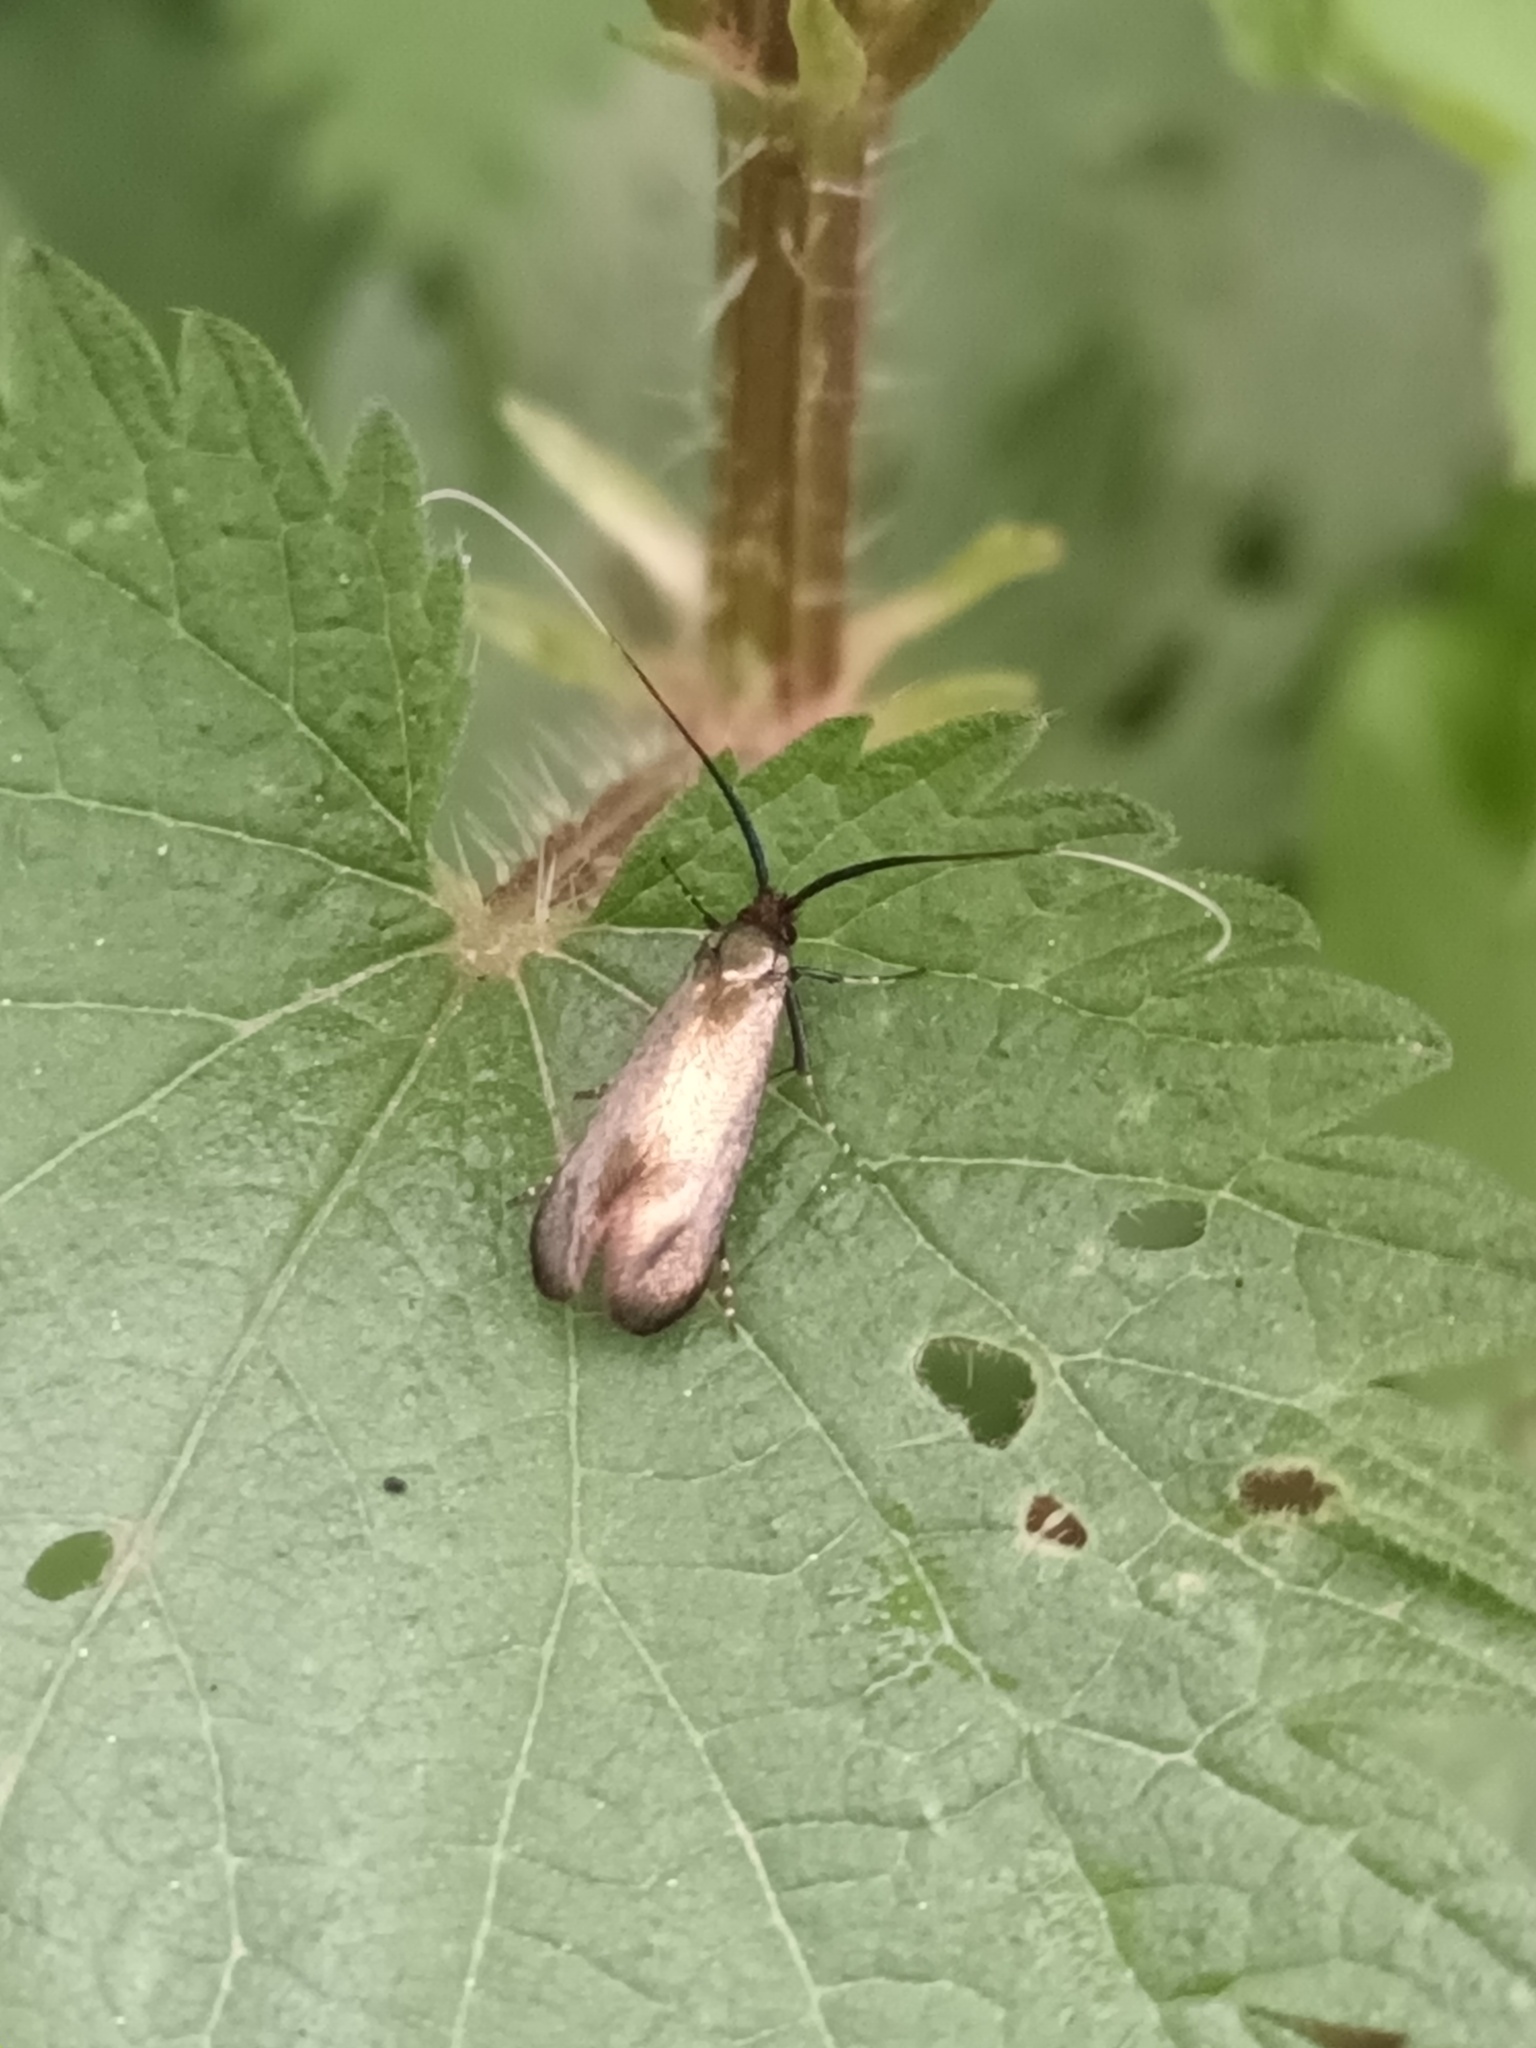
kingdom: Animalia
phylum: Arthropoda
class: Insecta
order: Lepidoptera
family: Adelidae
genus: Adela
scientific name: Adela viridella
